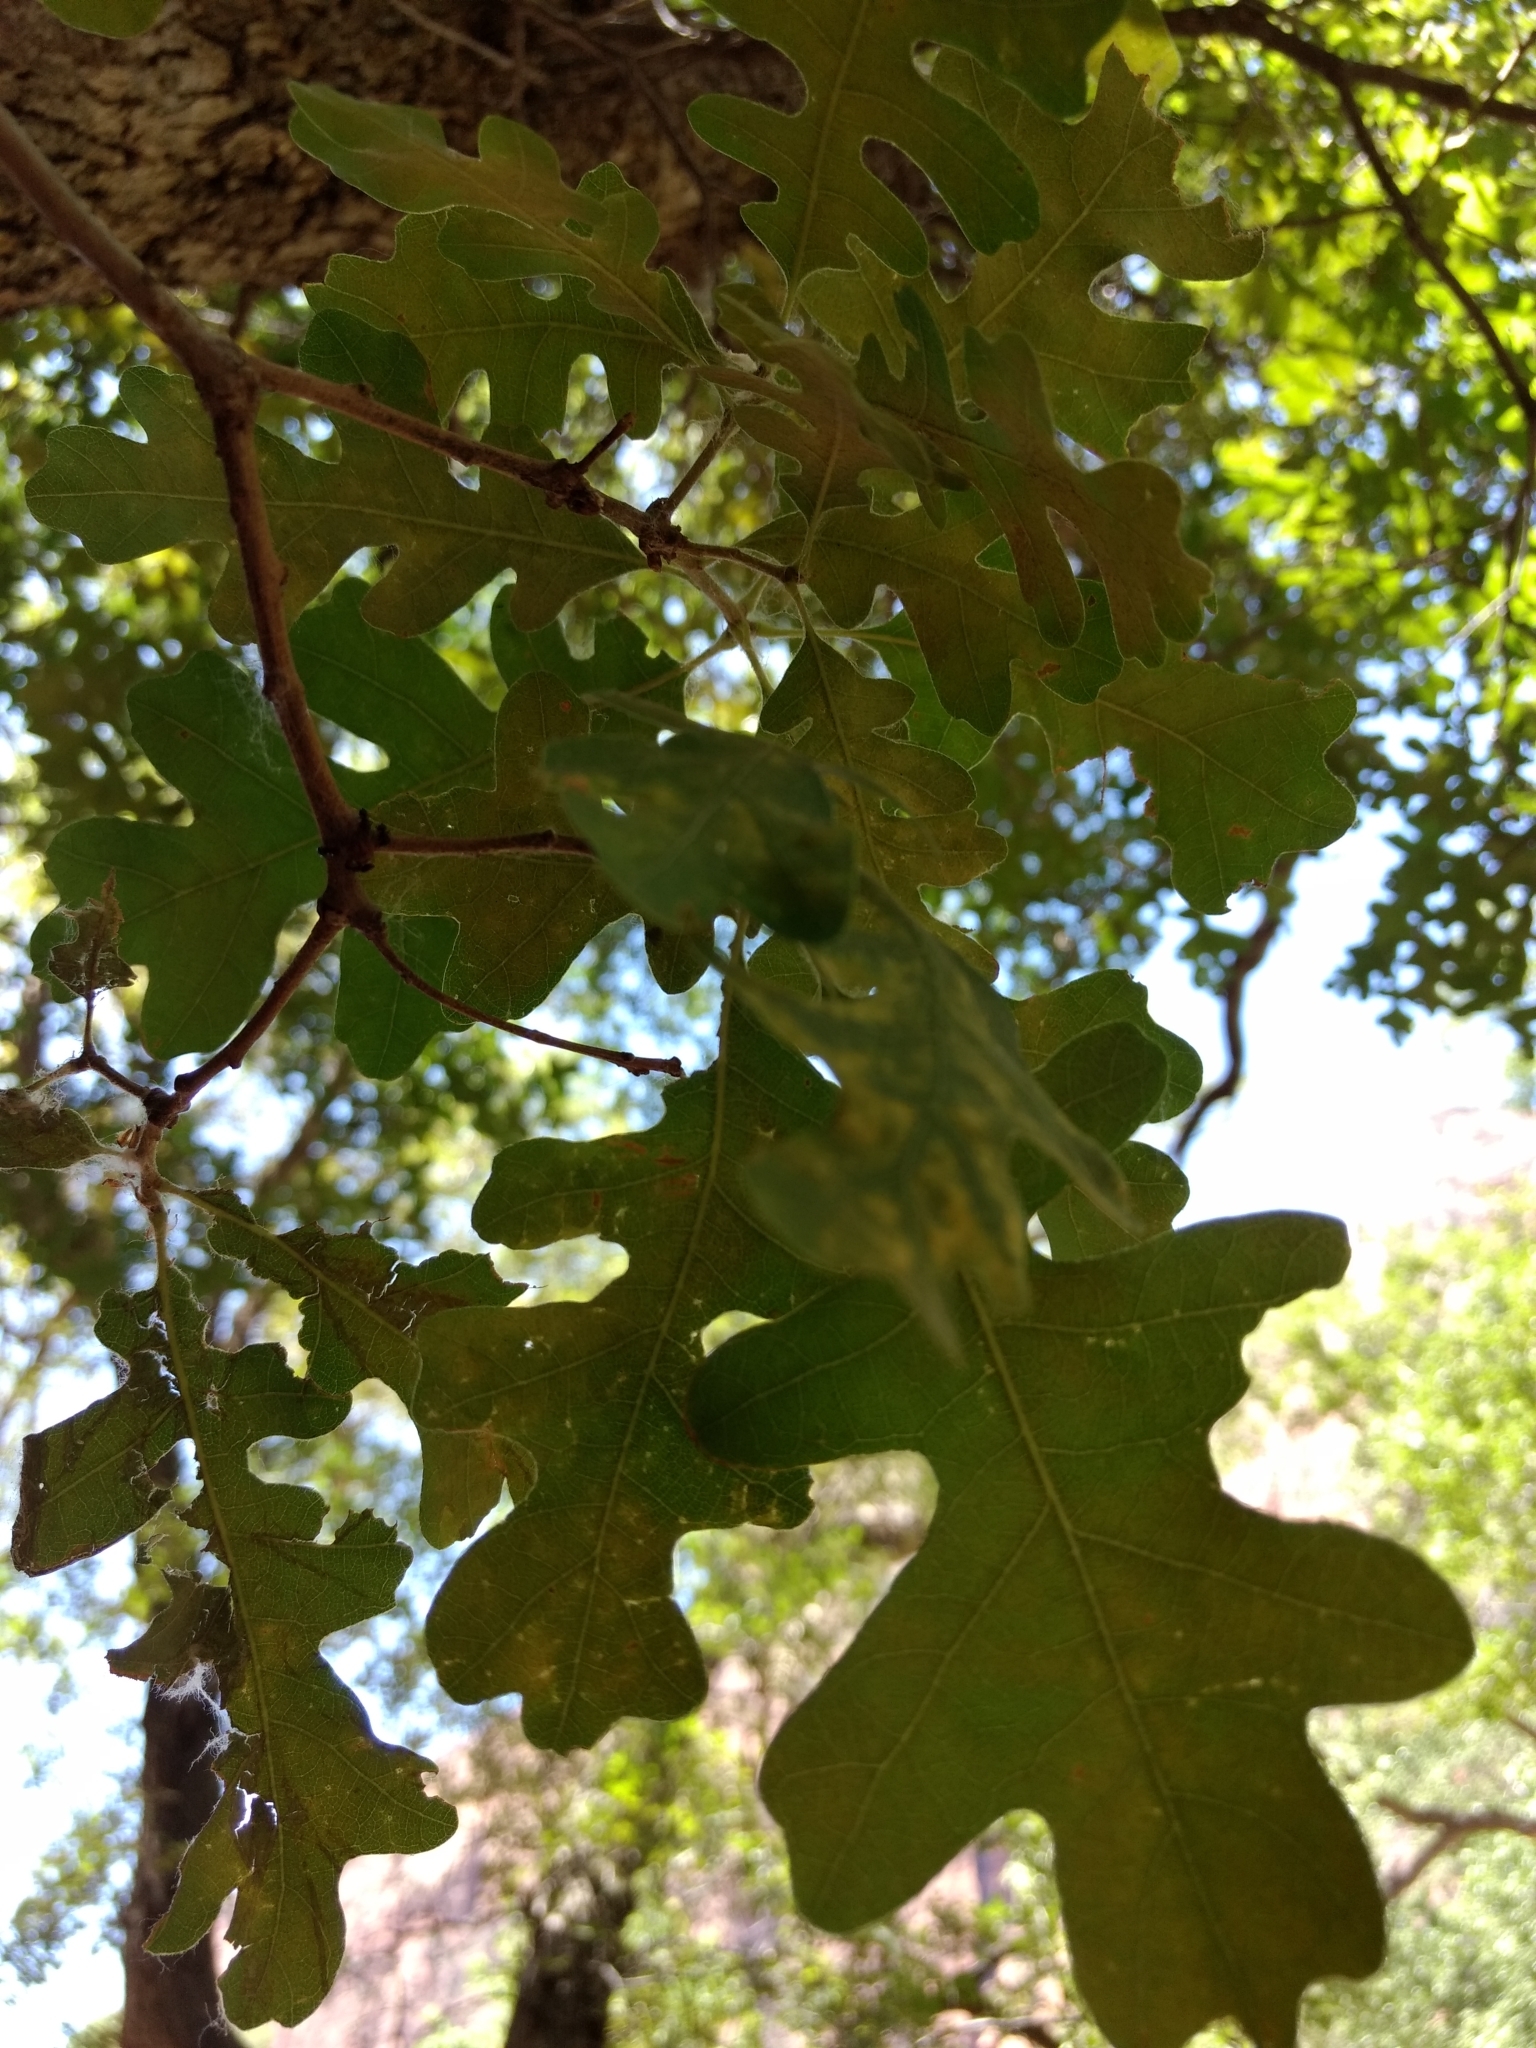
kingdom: Plantae
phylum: Tracheophyta
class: Magnoliopsida
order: Fagales
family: Fagaceae
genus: Quercus
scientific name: Quercus gambelii
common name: Gambel oak
